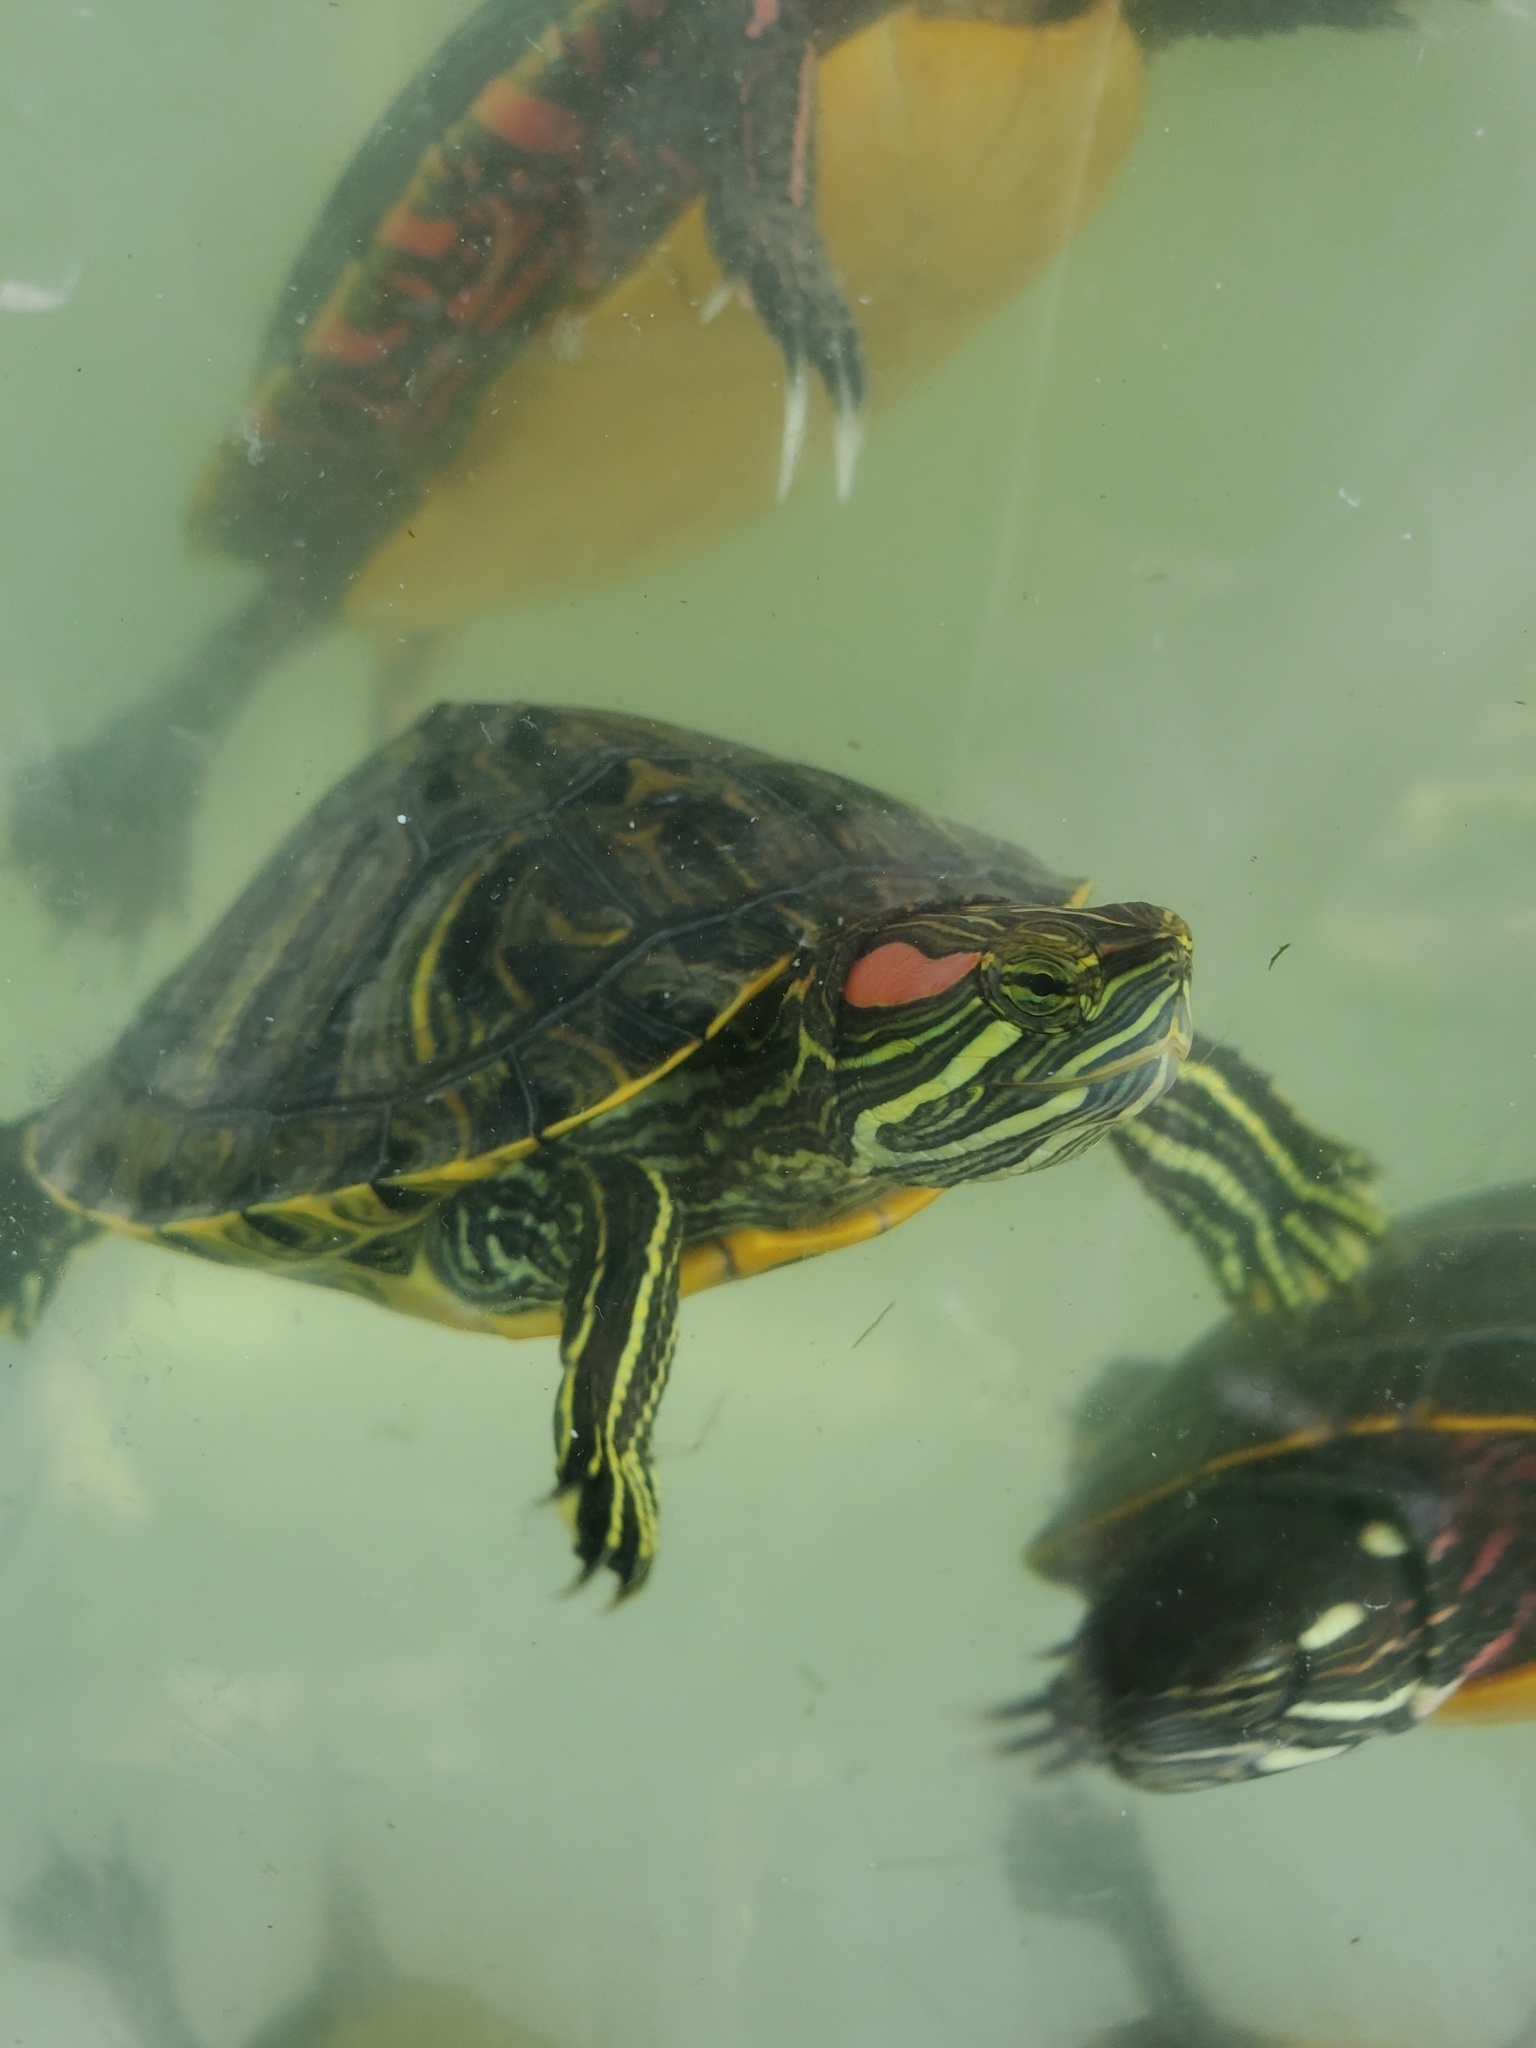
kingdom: Animalia
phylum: Chordata
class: Testudines
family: Emydidae
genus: Trachemys
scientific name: Trachemys scripta
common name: Slider
